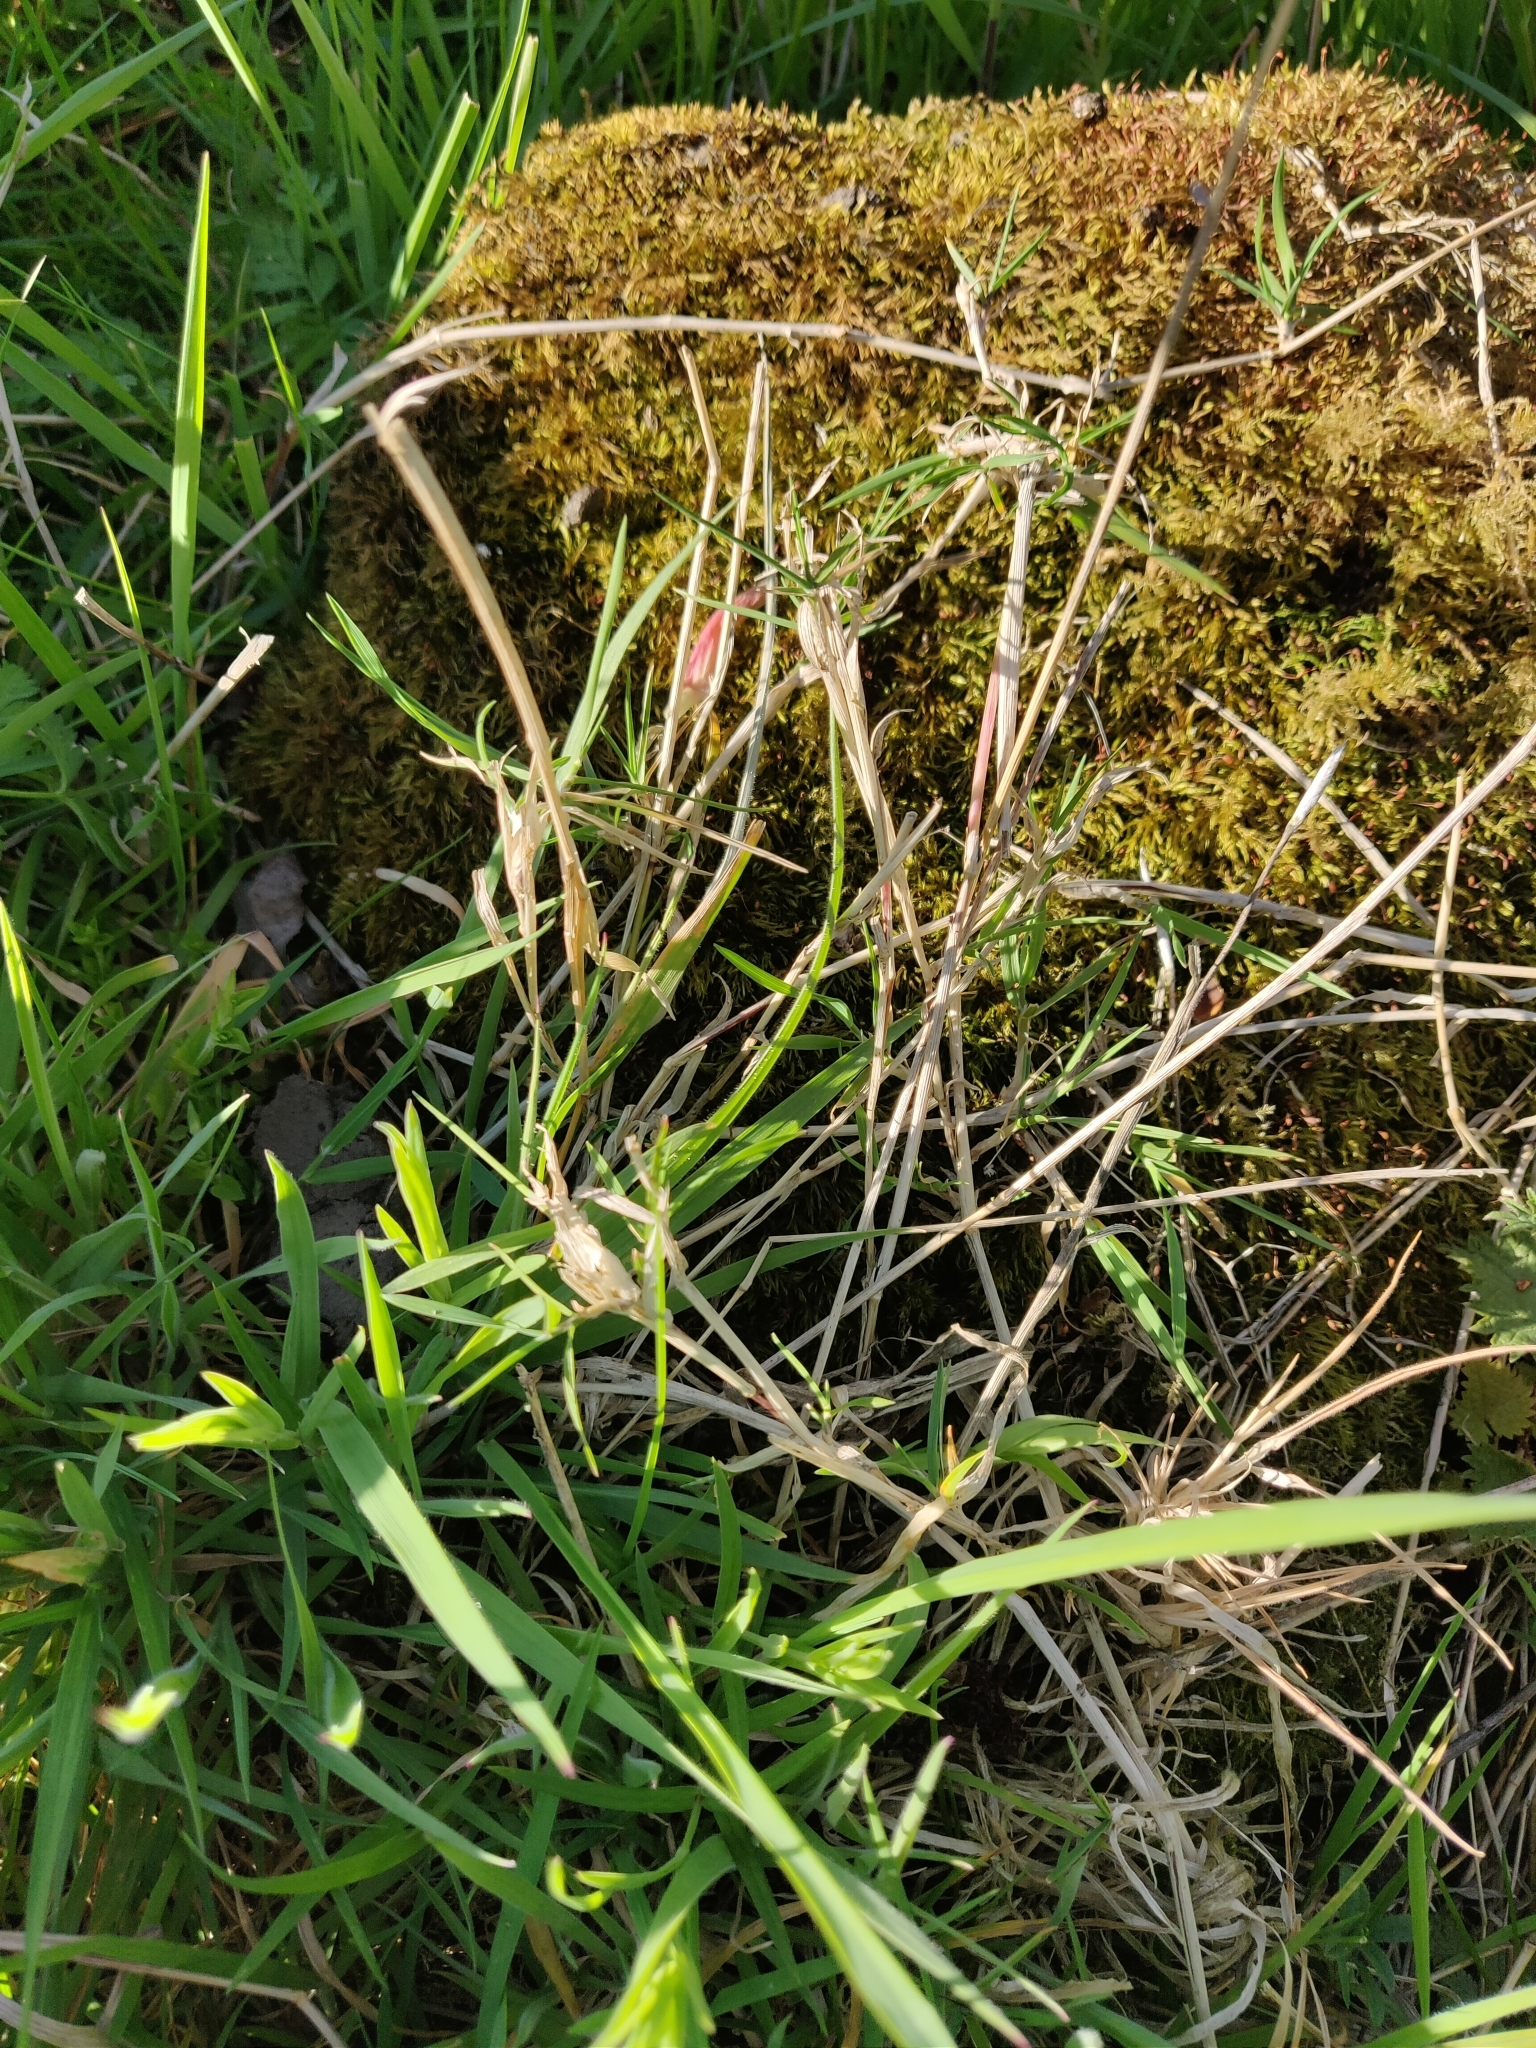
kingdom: Plantae
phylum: Tracheophyta
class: Liliopsida
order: Poales
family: Poaceae
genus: Agrostis
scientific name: Agrostis stolonifera
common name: Creeping bentgrass
